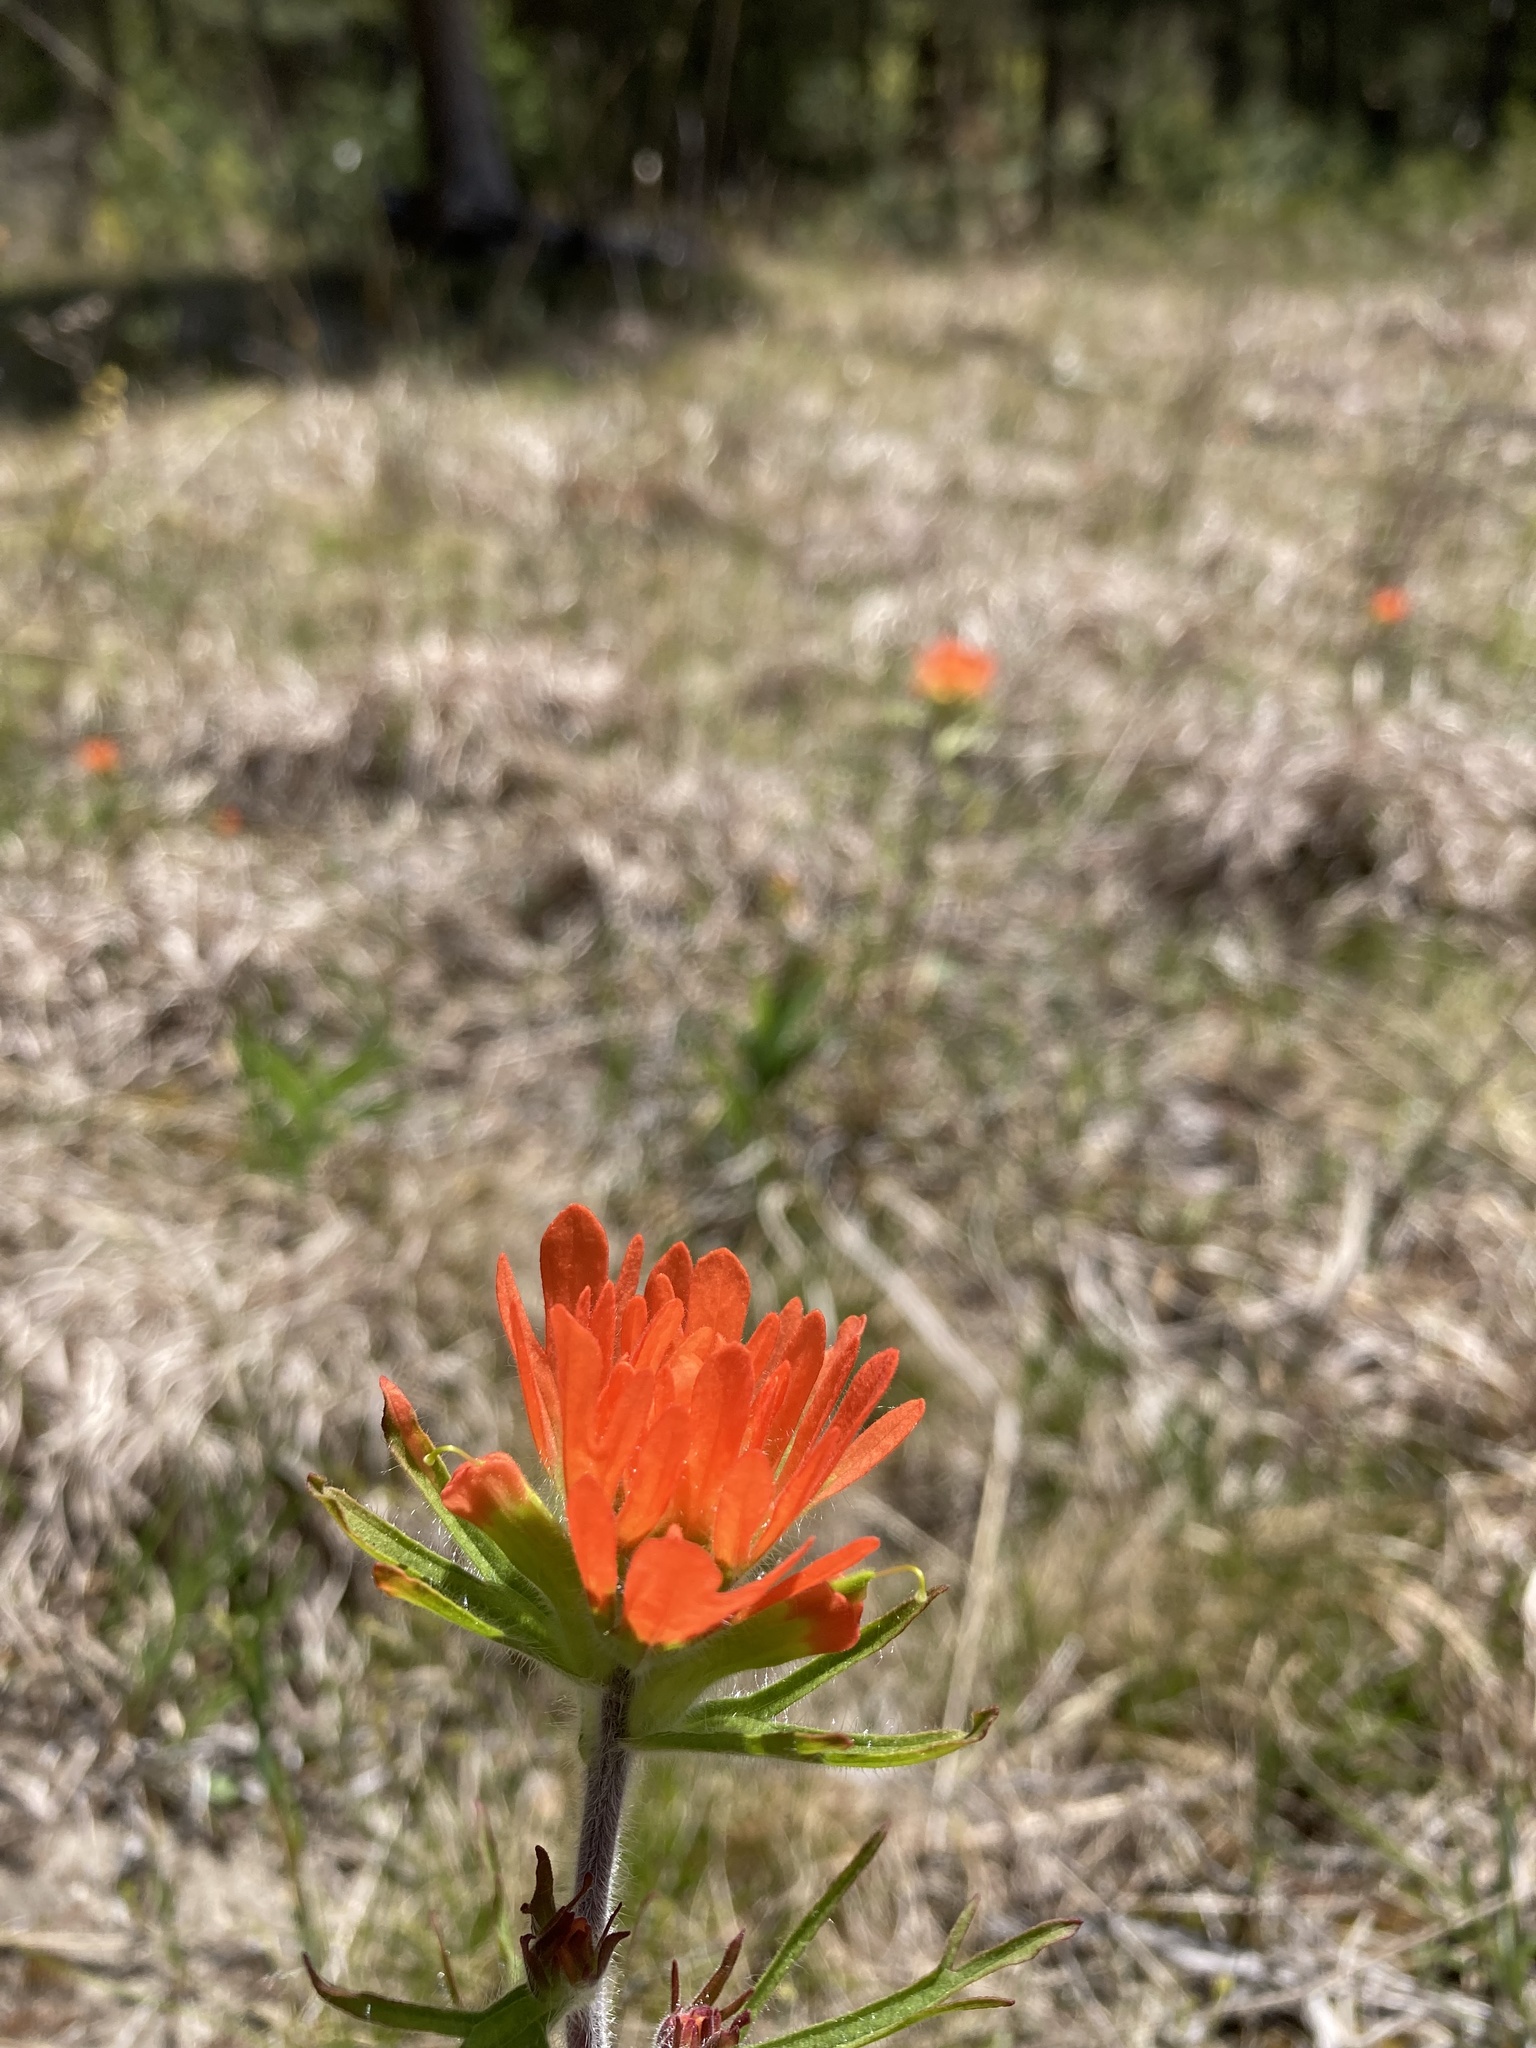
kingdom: Plantae
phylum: Tracheophyta
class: Magnoliopsida
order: Lamiales
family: Orobanchaceae
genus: Castilleja
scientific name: Castilleja coccinea
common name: Scarlet paintbrush
